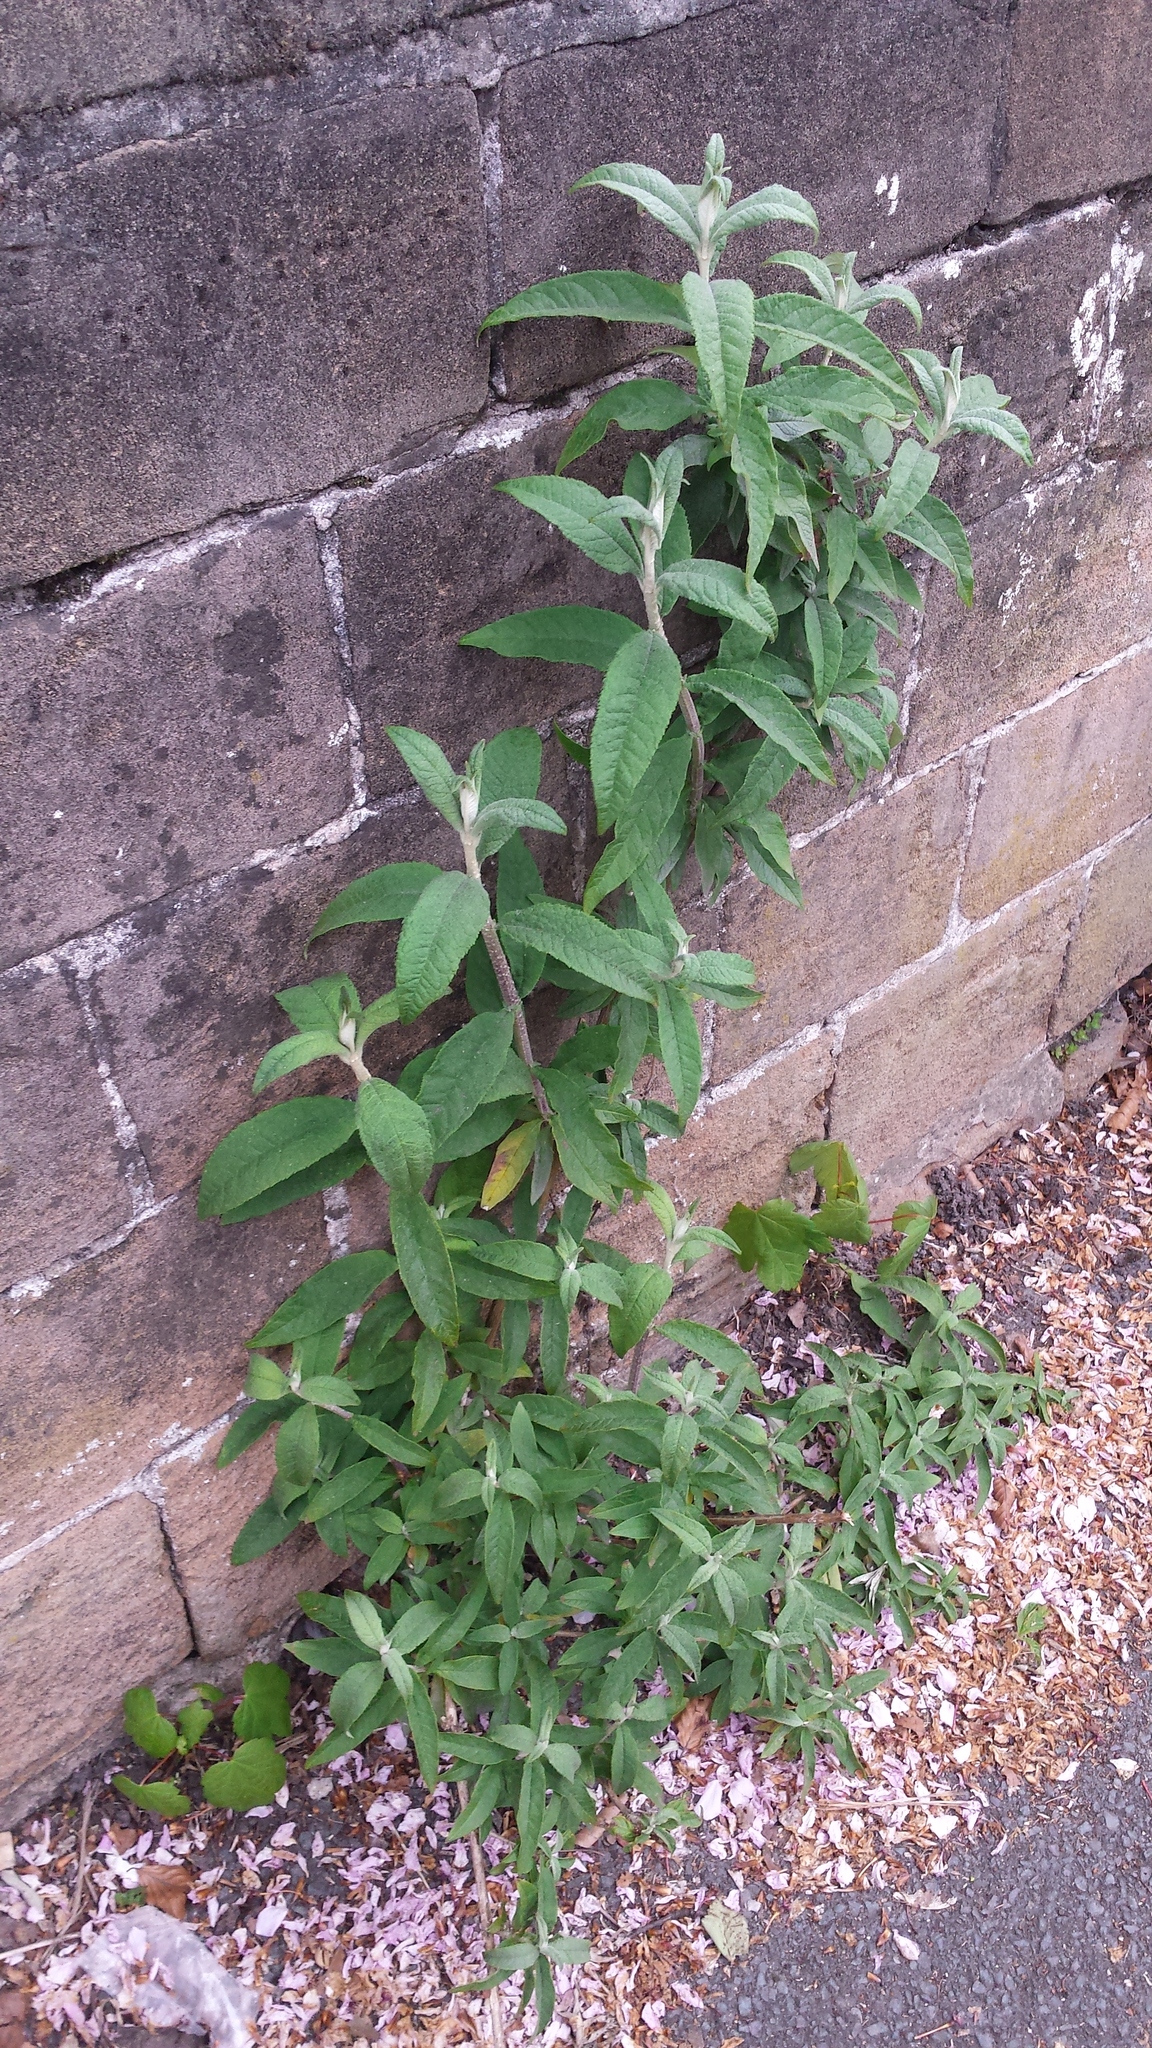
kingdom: Plantae
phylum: Tracheophyta
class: Magnoliopsida
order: Lamiales
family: Scrophulariaceae
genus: Buddleja
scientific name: Buddleja davidii
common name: Butterfly-bush
